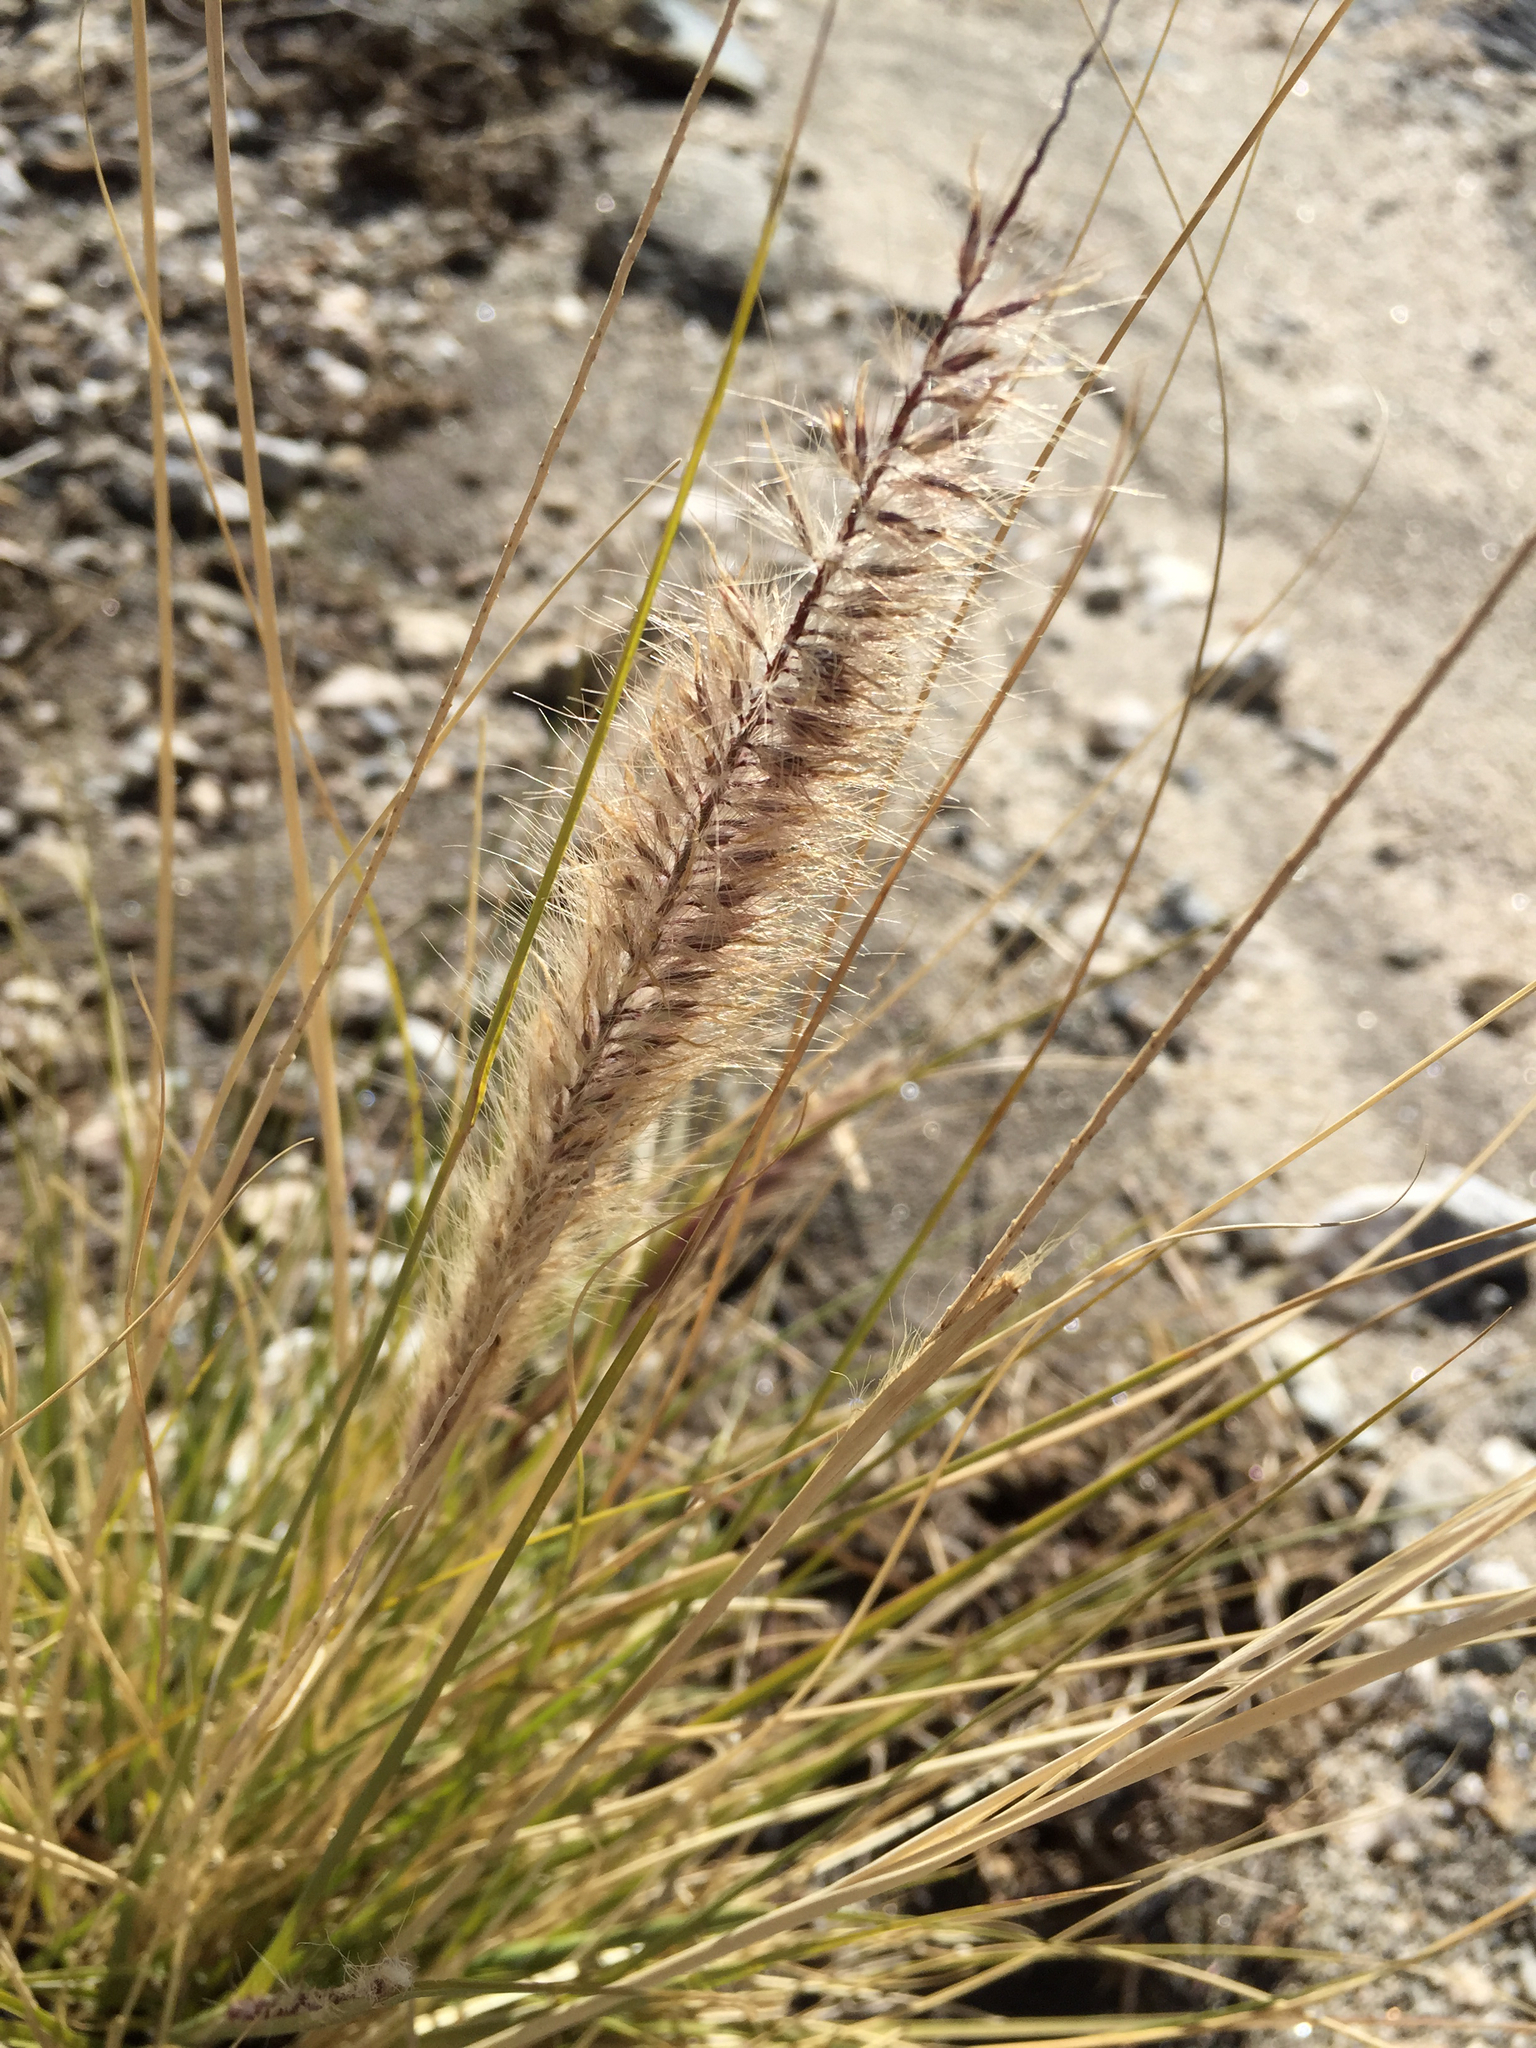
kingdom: Plantae
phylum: Tracheophyta
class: Liliopsida
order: Poales
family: Poaceae
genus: Cenchrus
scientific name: Cenchrus setaceus
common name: Crimson fountaingrass
